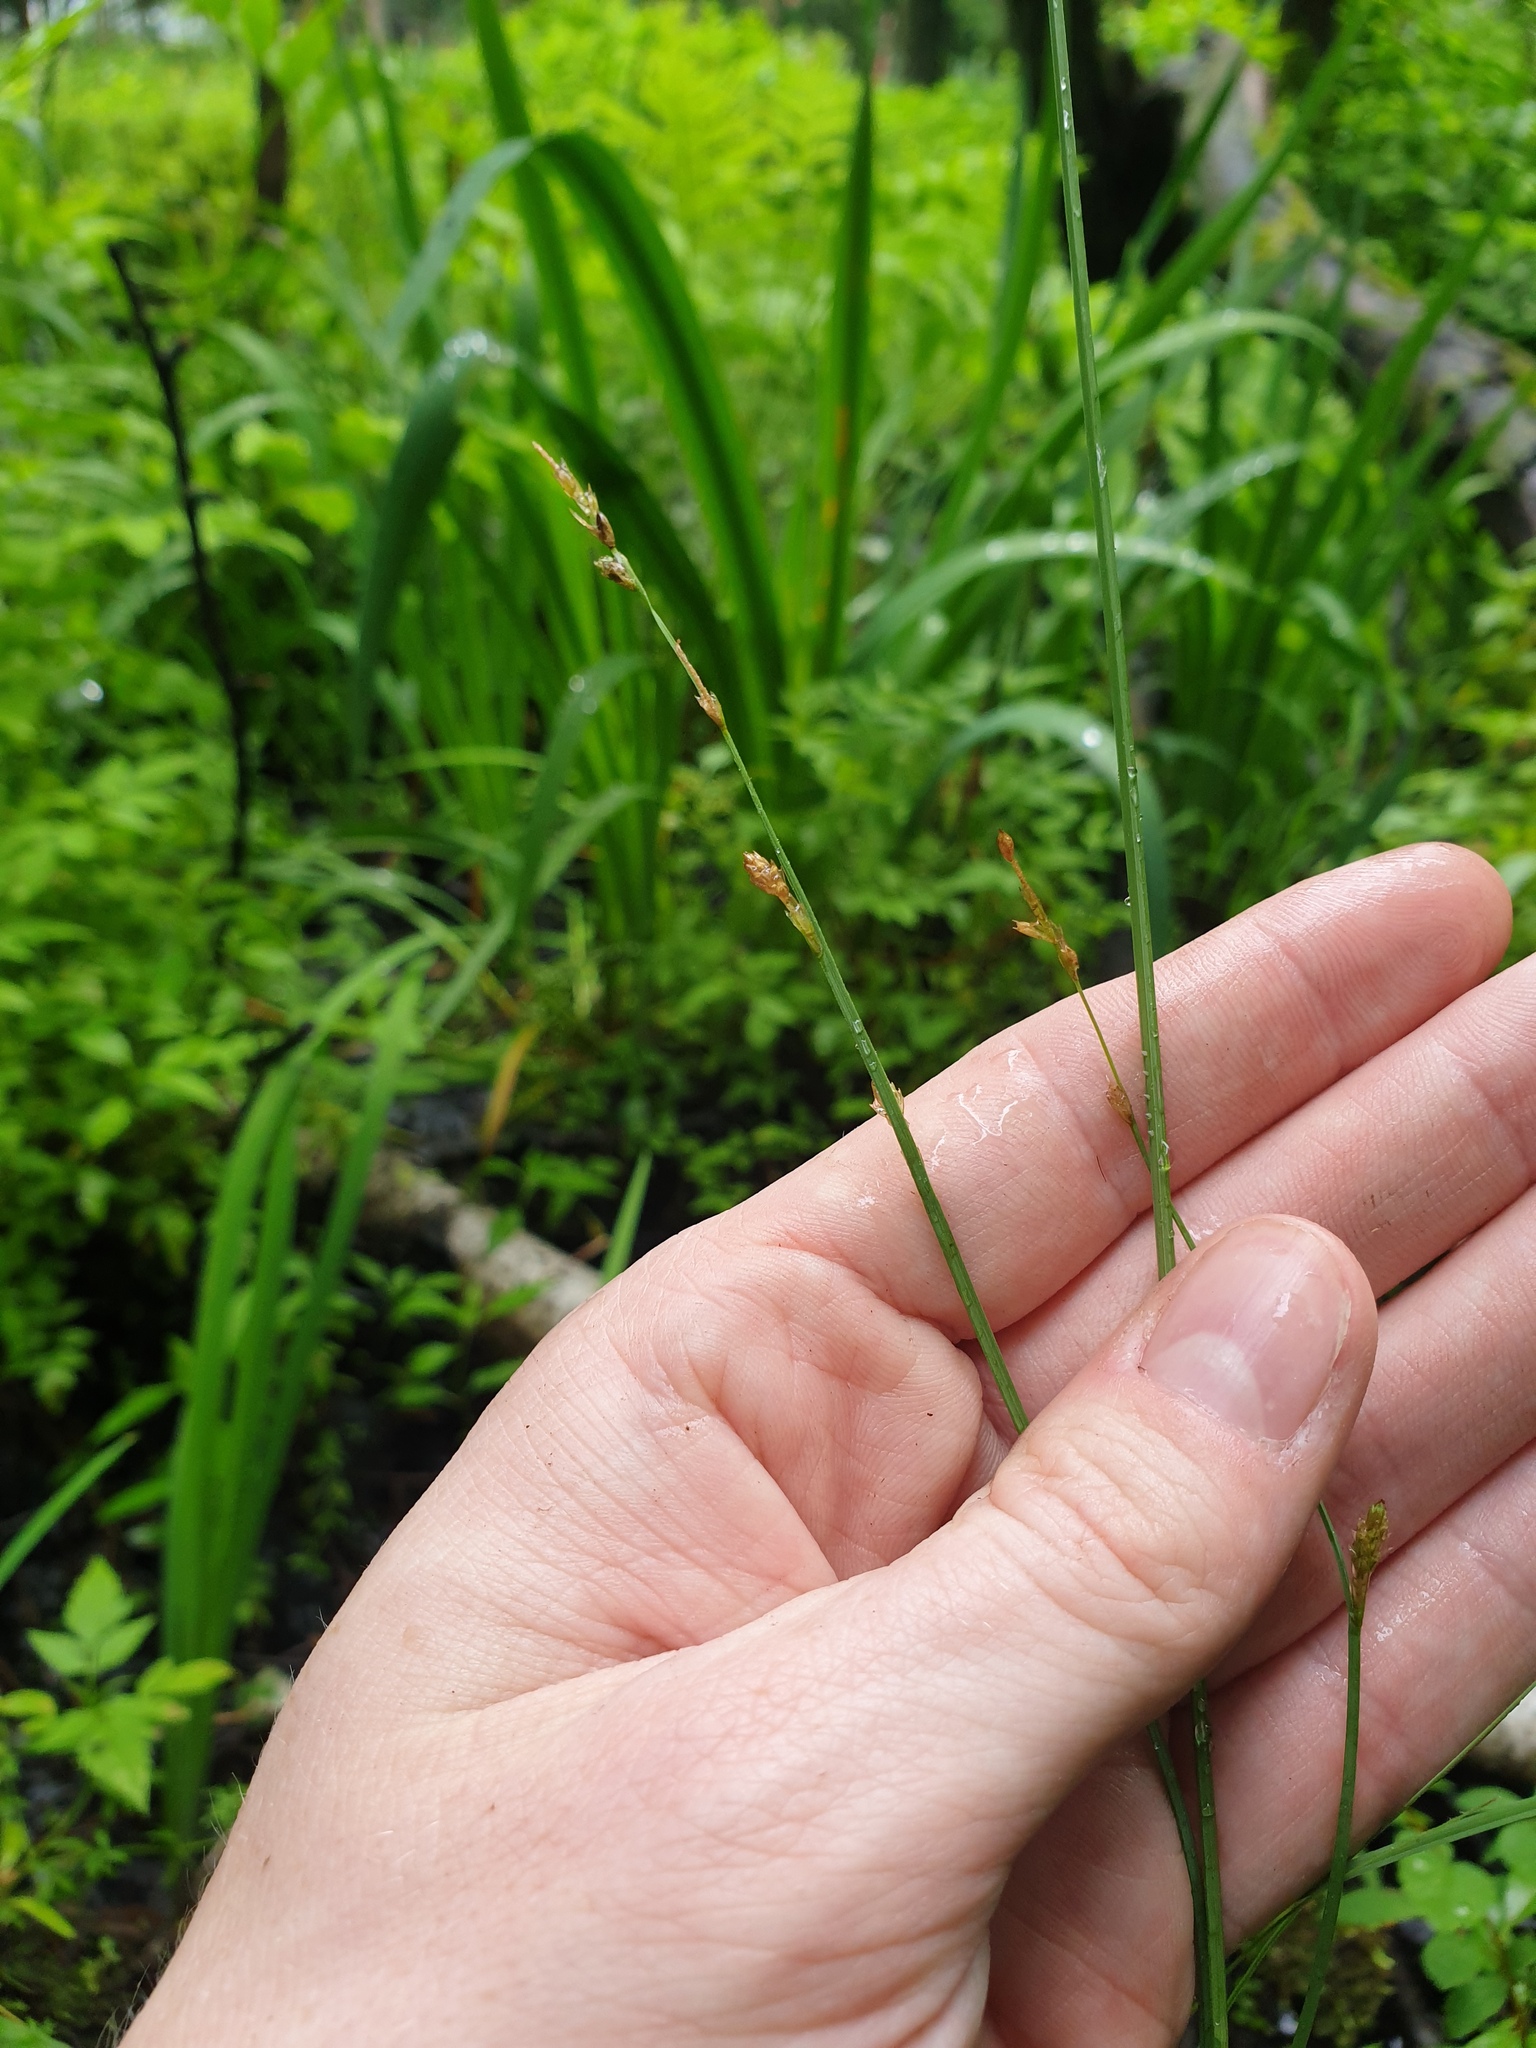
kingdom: Plantae
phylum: Tracheophyta
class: Liliopsida
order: Poales
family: Cyperaceae
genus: Carex
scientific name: Carex canescens
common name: White sedge
